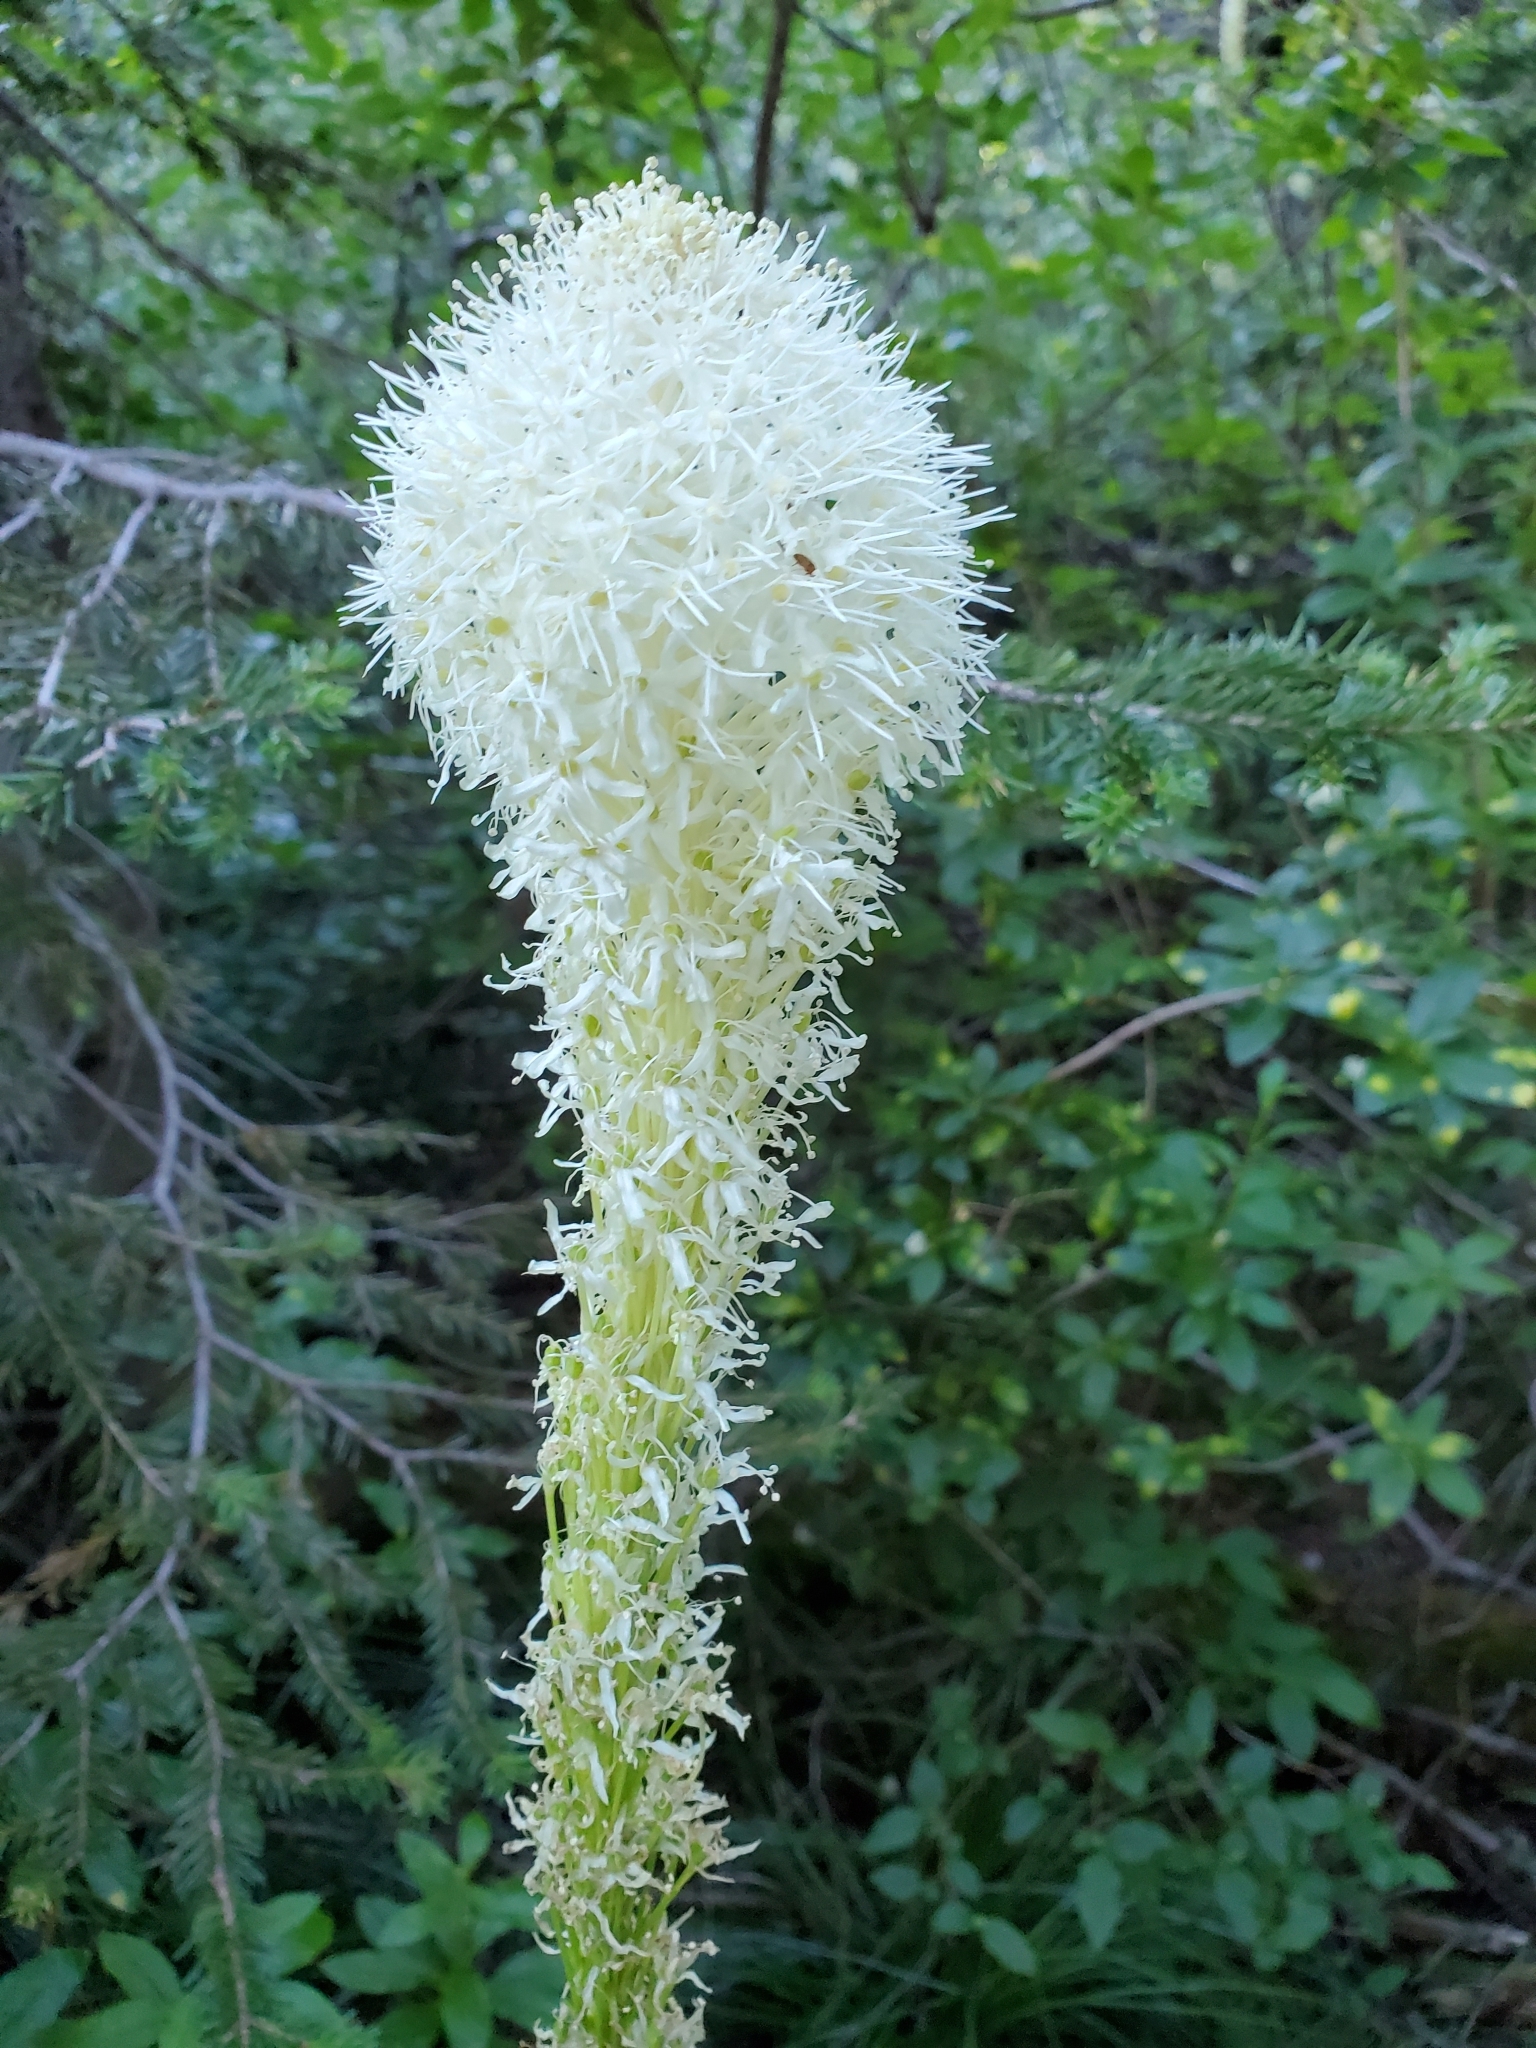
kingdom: Plantae
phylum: Tracheophyta
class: Liliopsida
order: Liliales
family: Melanthiaceae
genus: Xerophyllum
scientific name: Xerophyllum tenax
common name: Bear-grass
